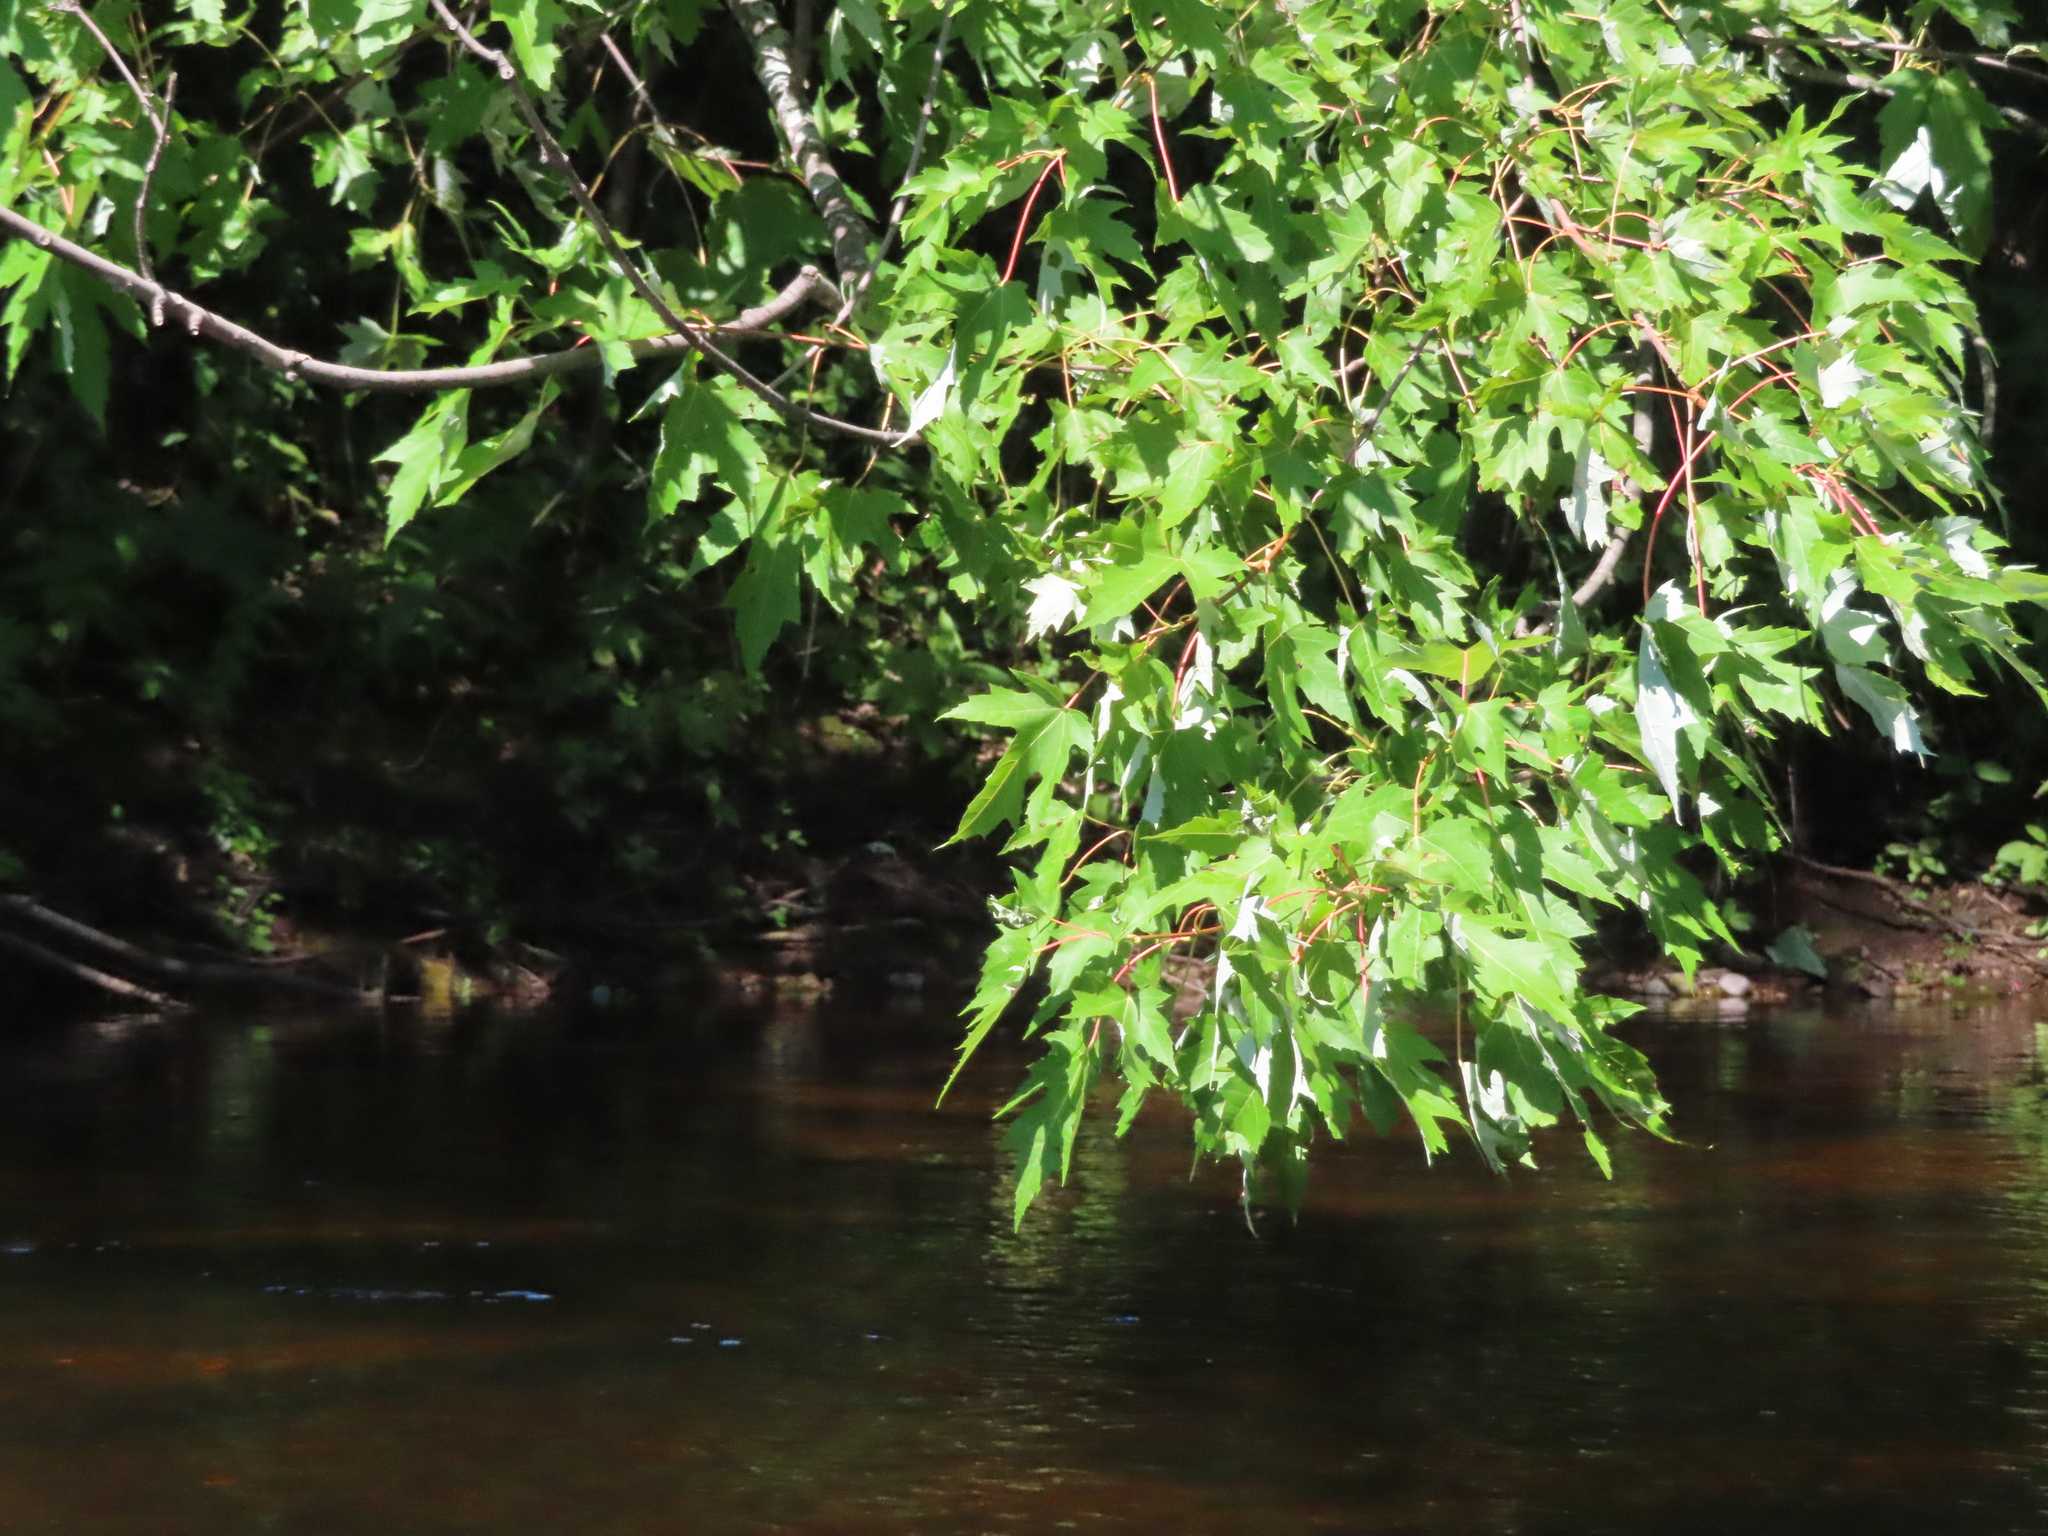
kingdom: Plantae
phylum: Tracheophyta
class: Magnoliopsida
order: Sapindales
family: Sapindaceae
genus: Acer
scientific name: Acer saccharinum
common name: Silver maple
